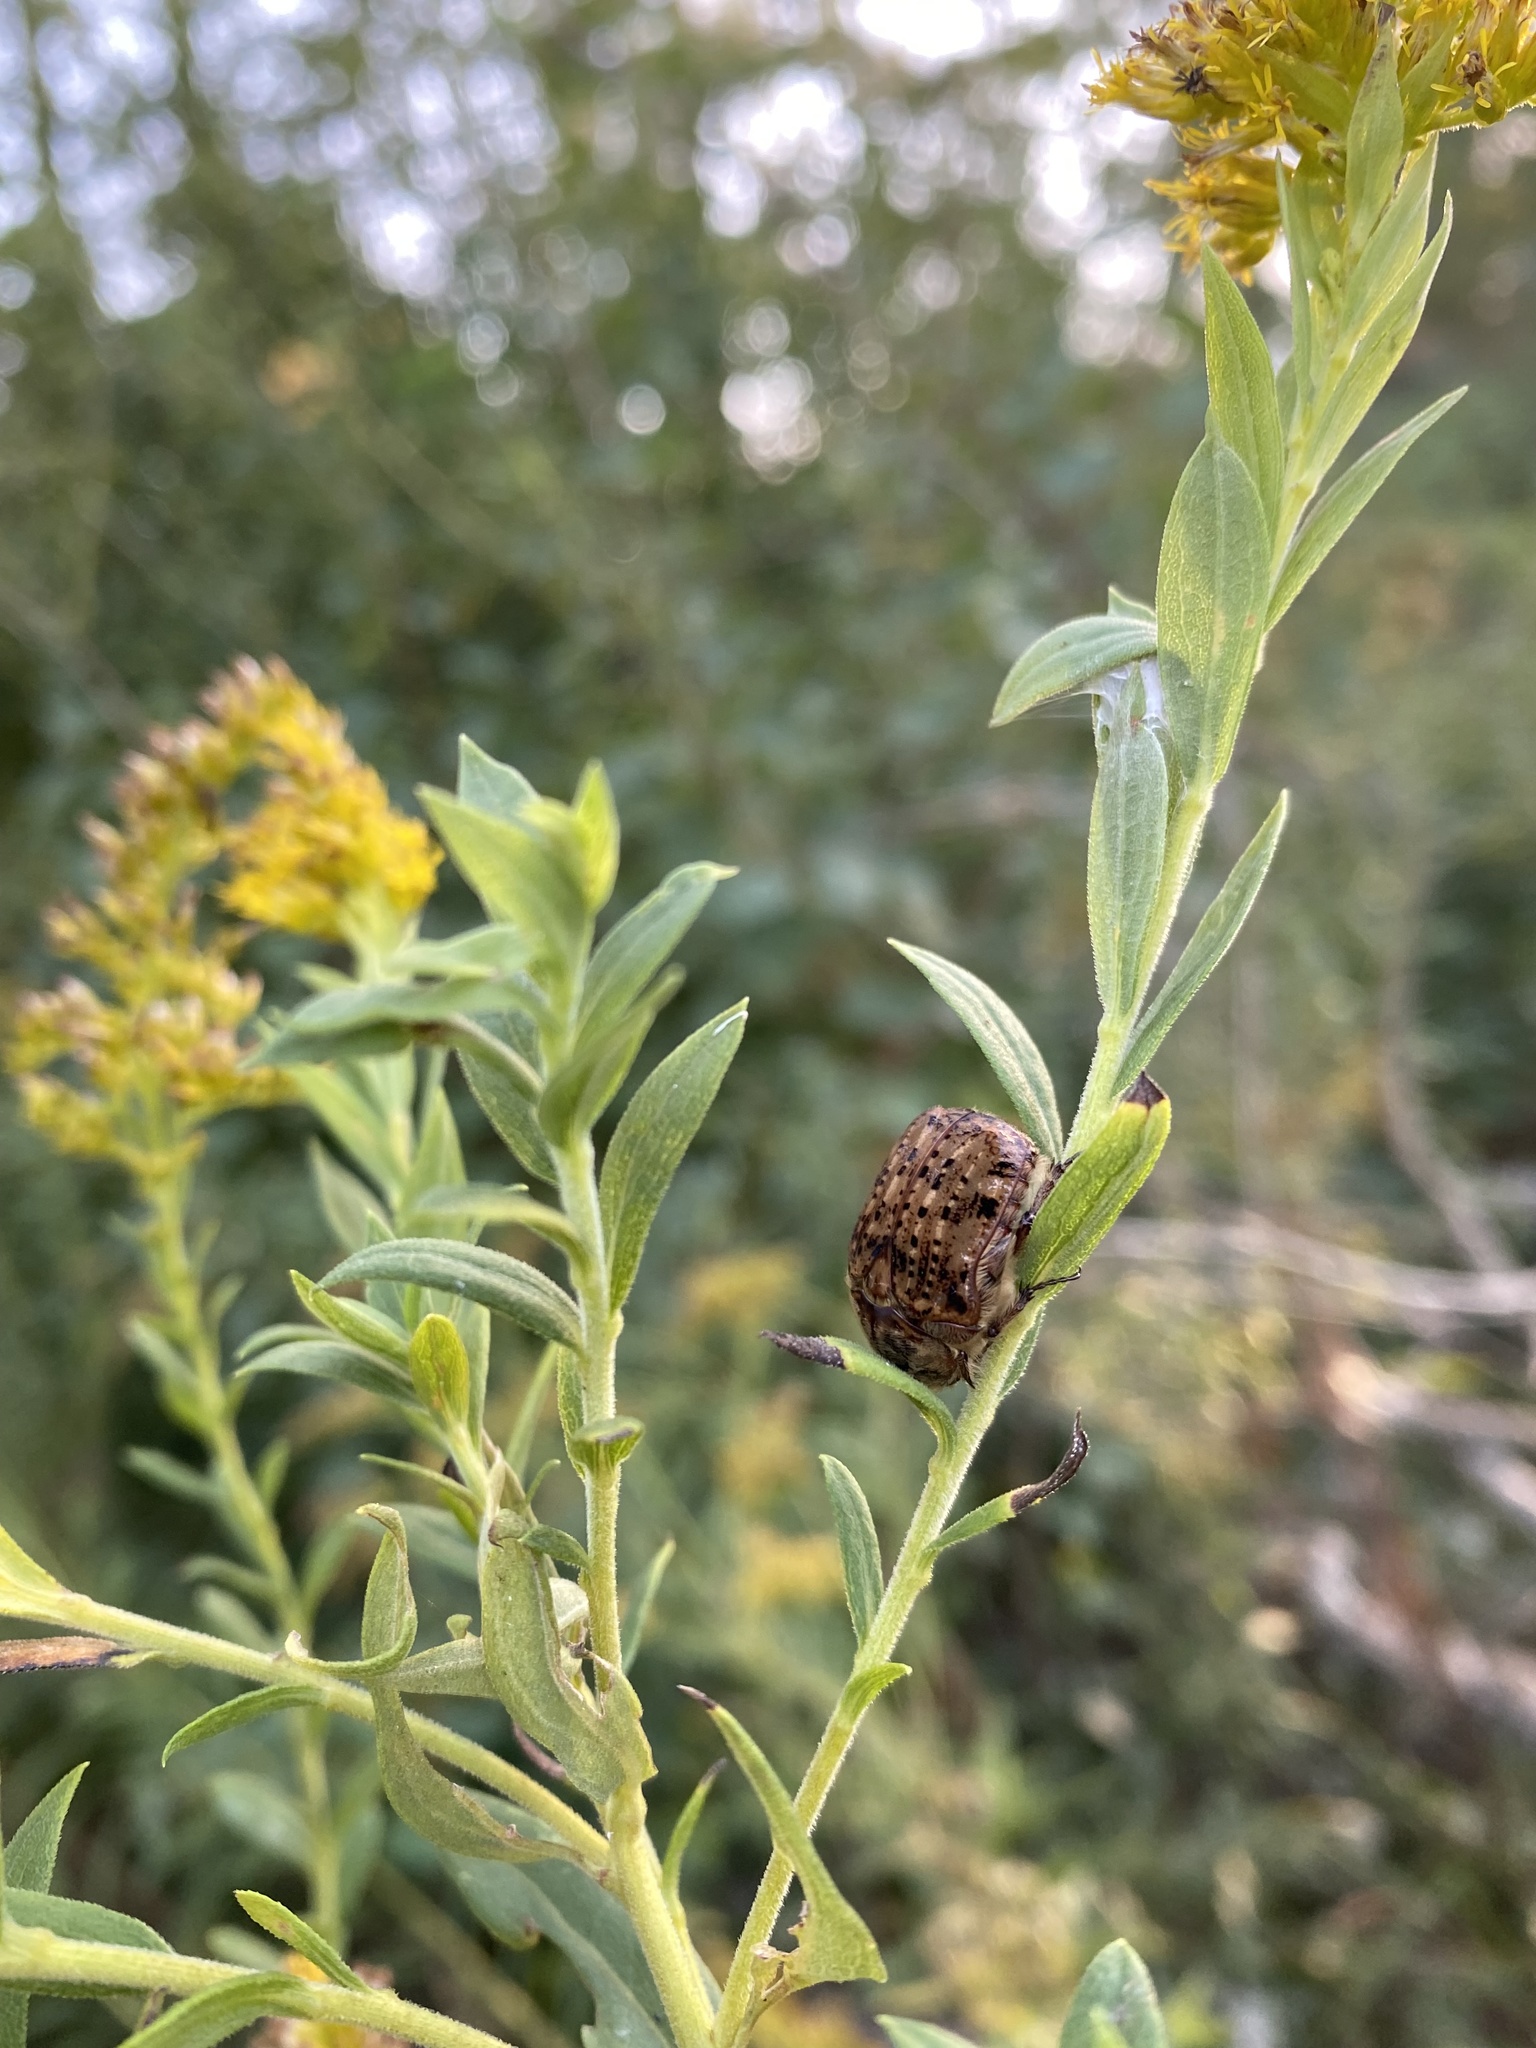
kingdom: Animalia
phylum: Arthropoda
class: Insecta
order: Coleoptera
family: Scarabaeidae
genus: Euphoria
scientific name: Euphoria inda
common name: Bumble flower beetle
